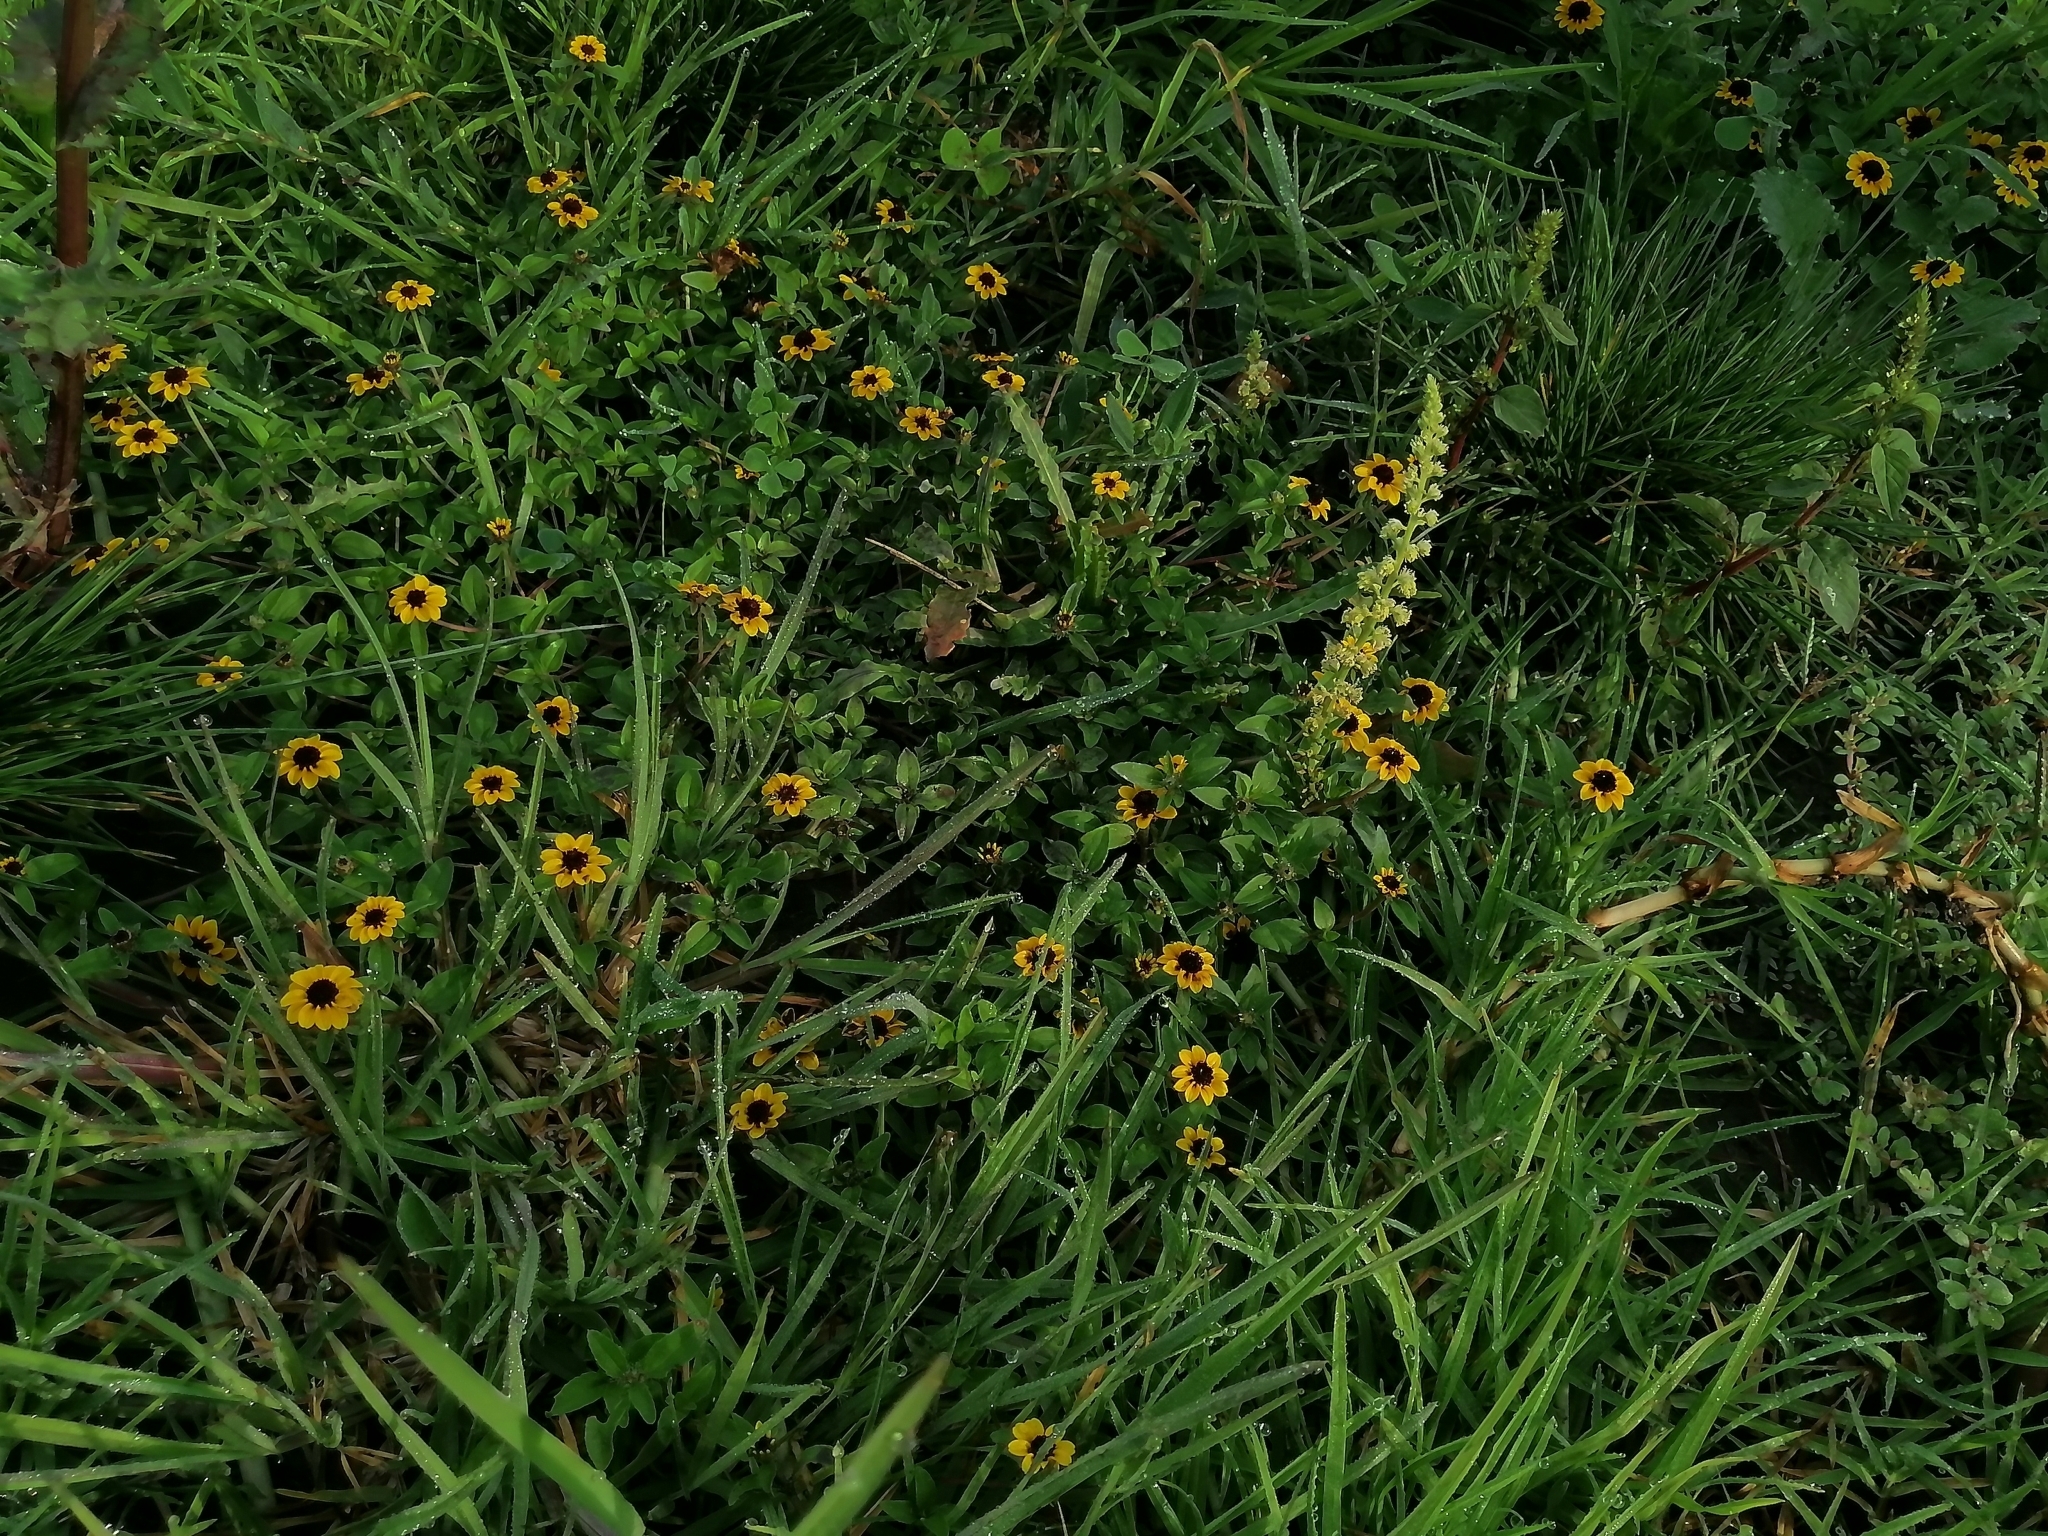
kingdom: Plantae
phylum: Tracheophyta
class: Magnoliopsida
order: Asterales
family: Asteraceae
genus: Sanvitalia
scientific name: Sanvitalia procumbens
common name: Mexican creeping zinnia
